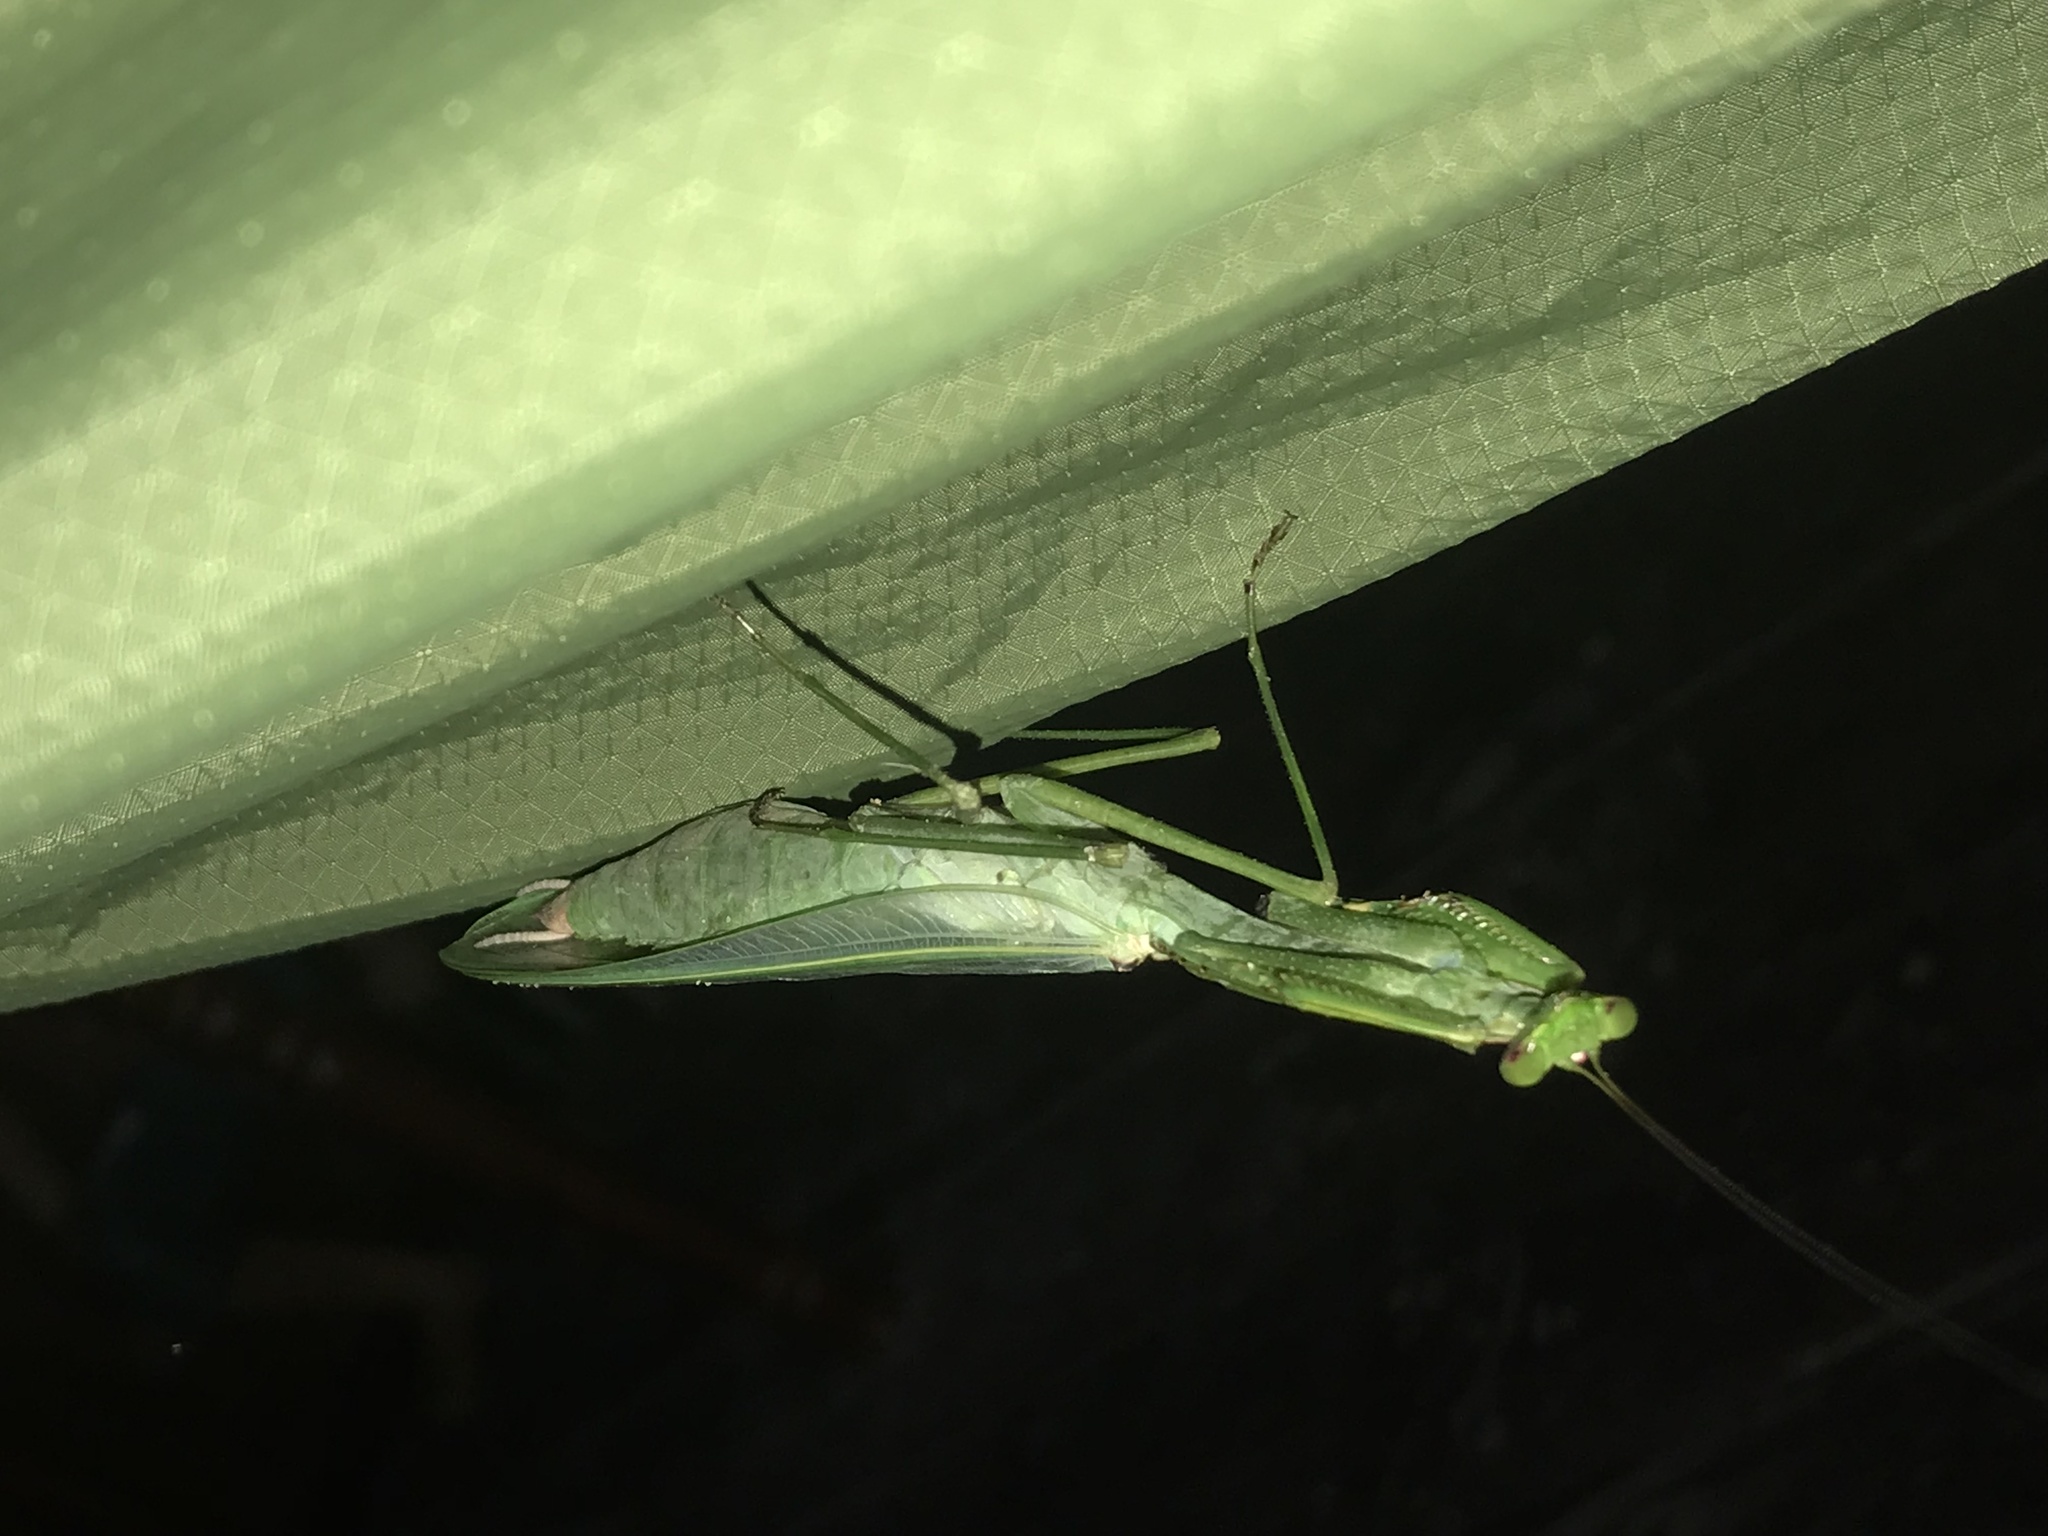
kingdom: Animalia
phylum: Arthropoda
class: Insecta
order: Mantodea
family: Photinaidae
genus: Macromantis
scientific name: Macromantis hyalina
